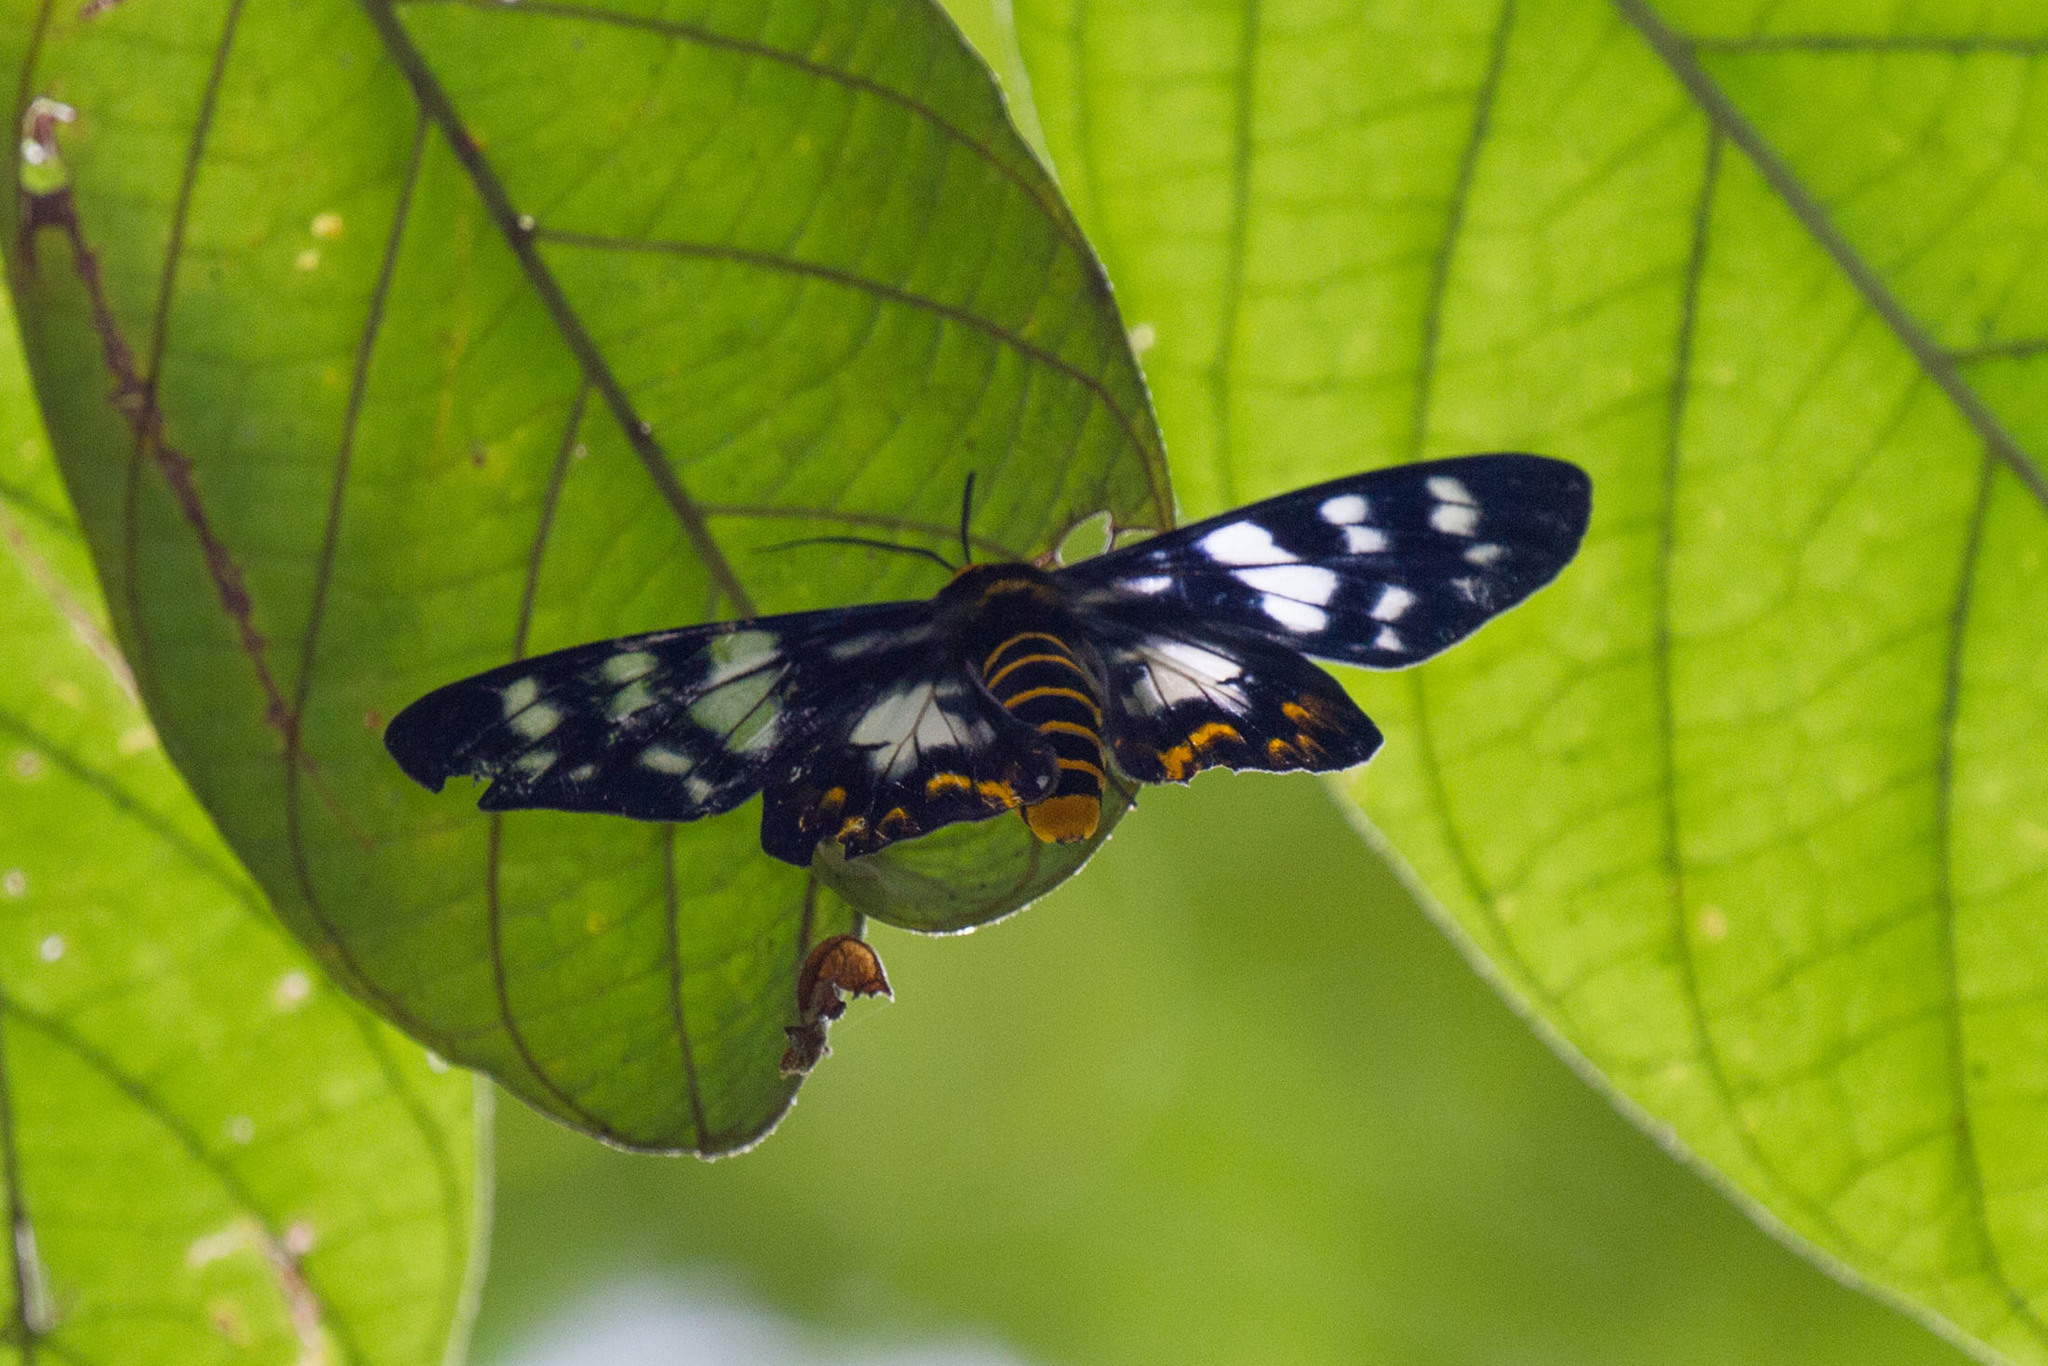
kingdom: Animalia
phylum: Arthropoda
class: Insecta
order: Lepidoptera
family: Geometridae
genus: Dysphania
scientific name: Dysphania endoleuca
